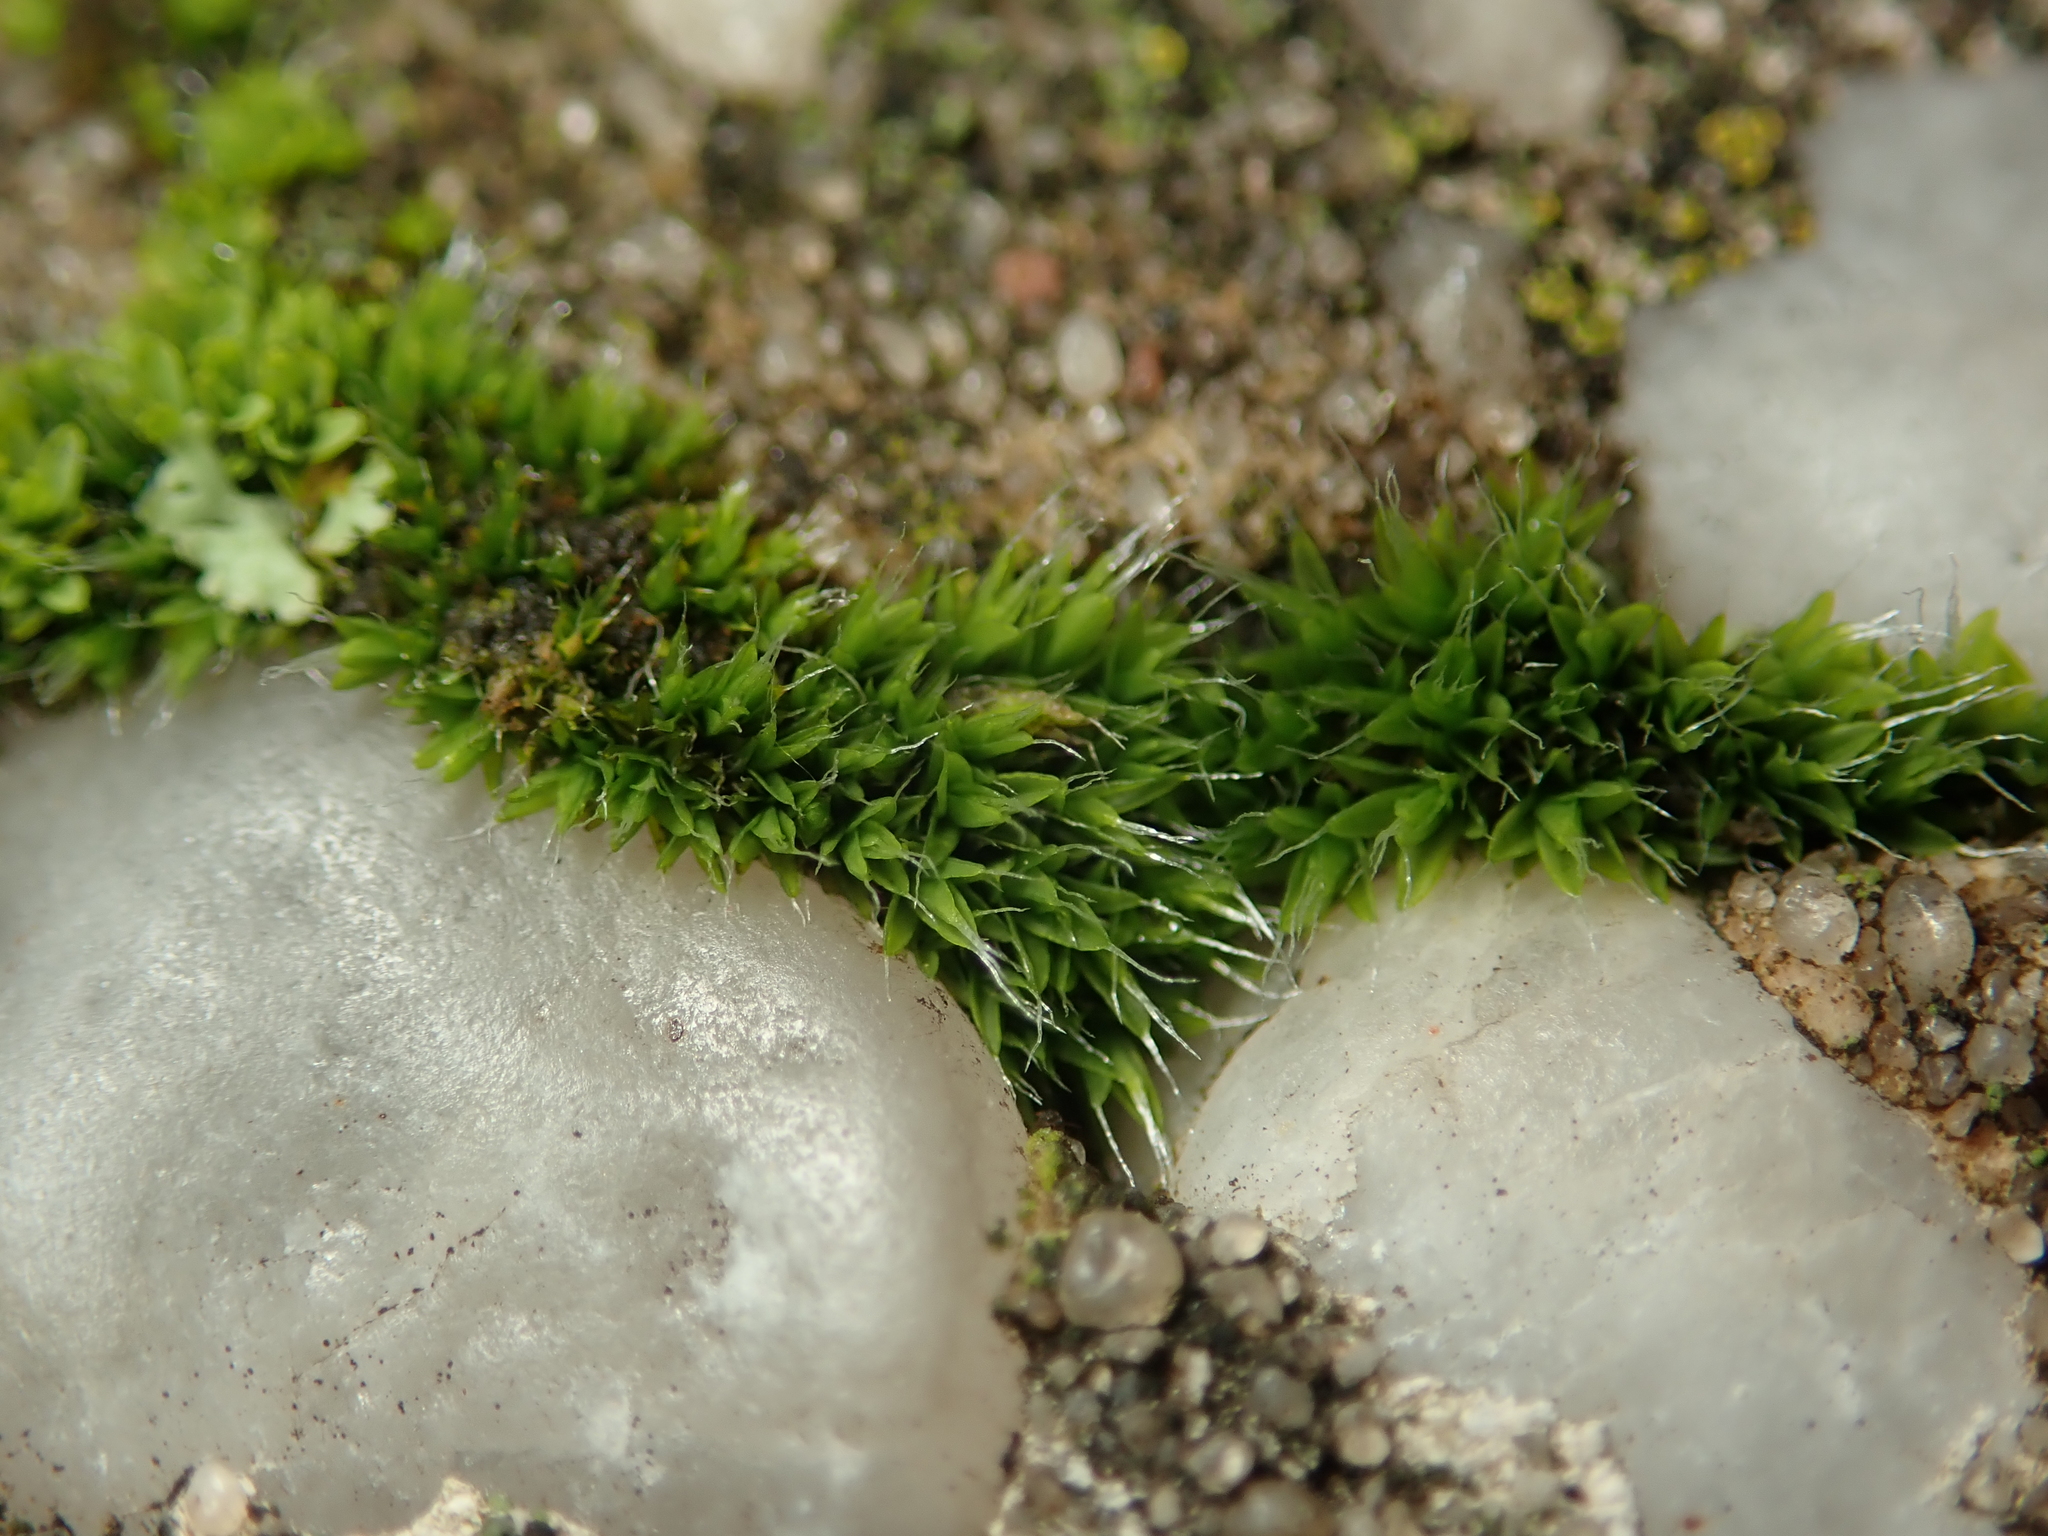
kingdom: Plantae
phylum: Bryophyta
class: Bryopsida
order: Grimmiales
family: Grimmiaceae
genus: Grimmia
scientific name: Grimmia pulvinata
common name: Grey-cushioned grimmia
